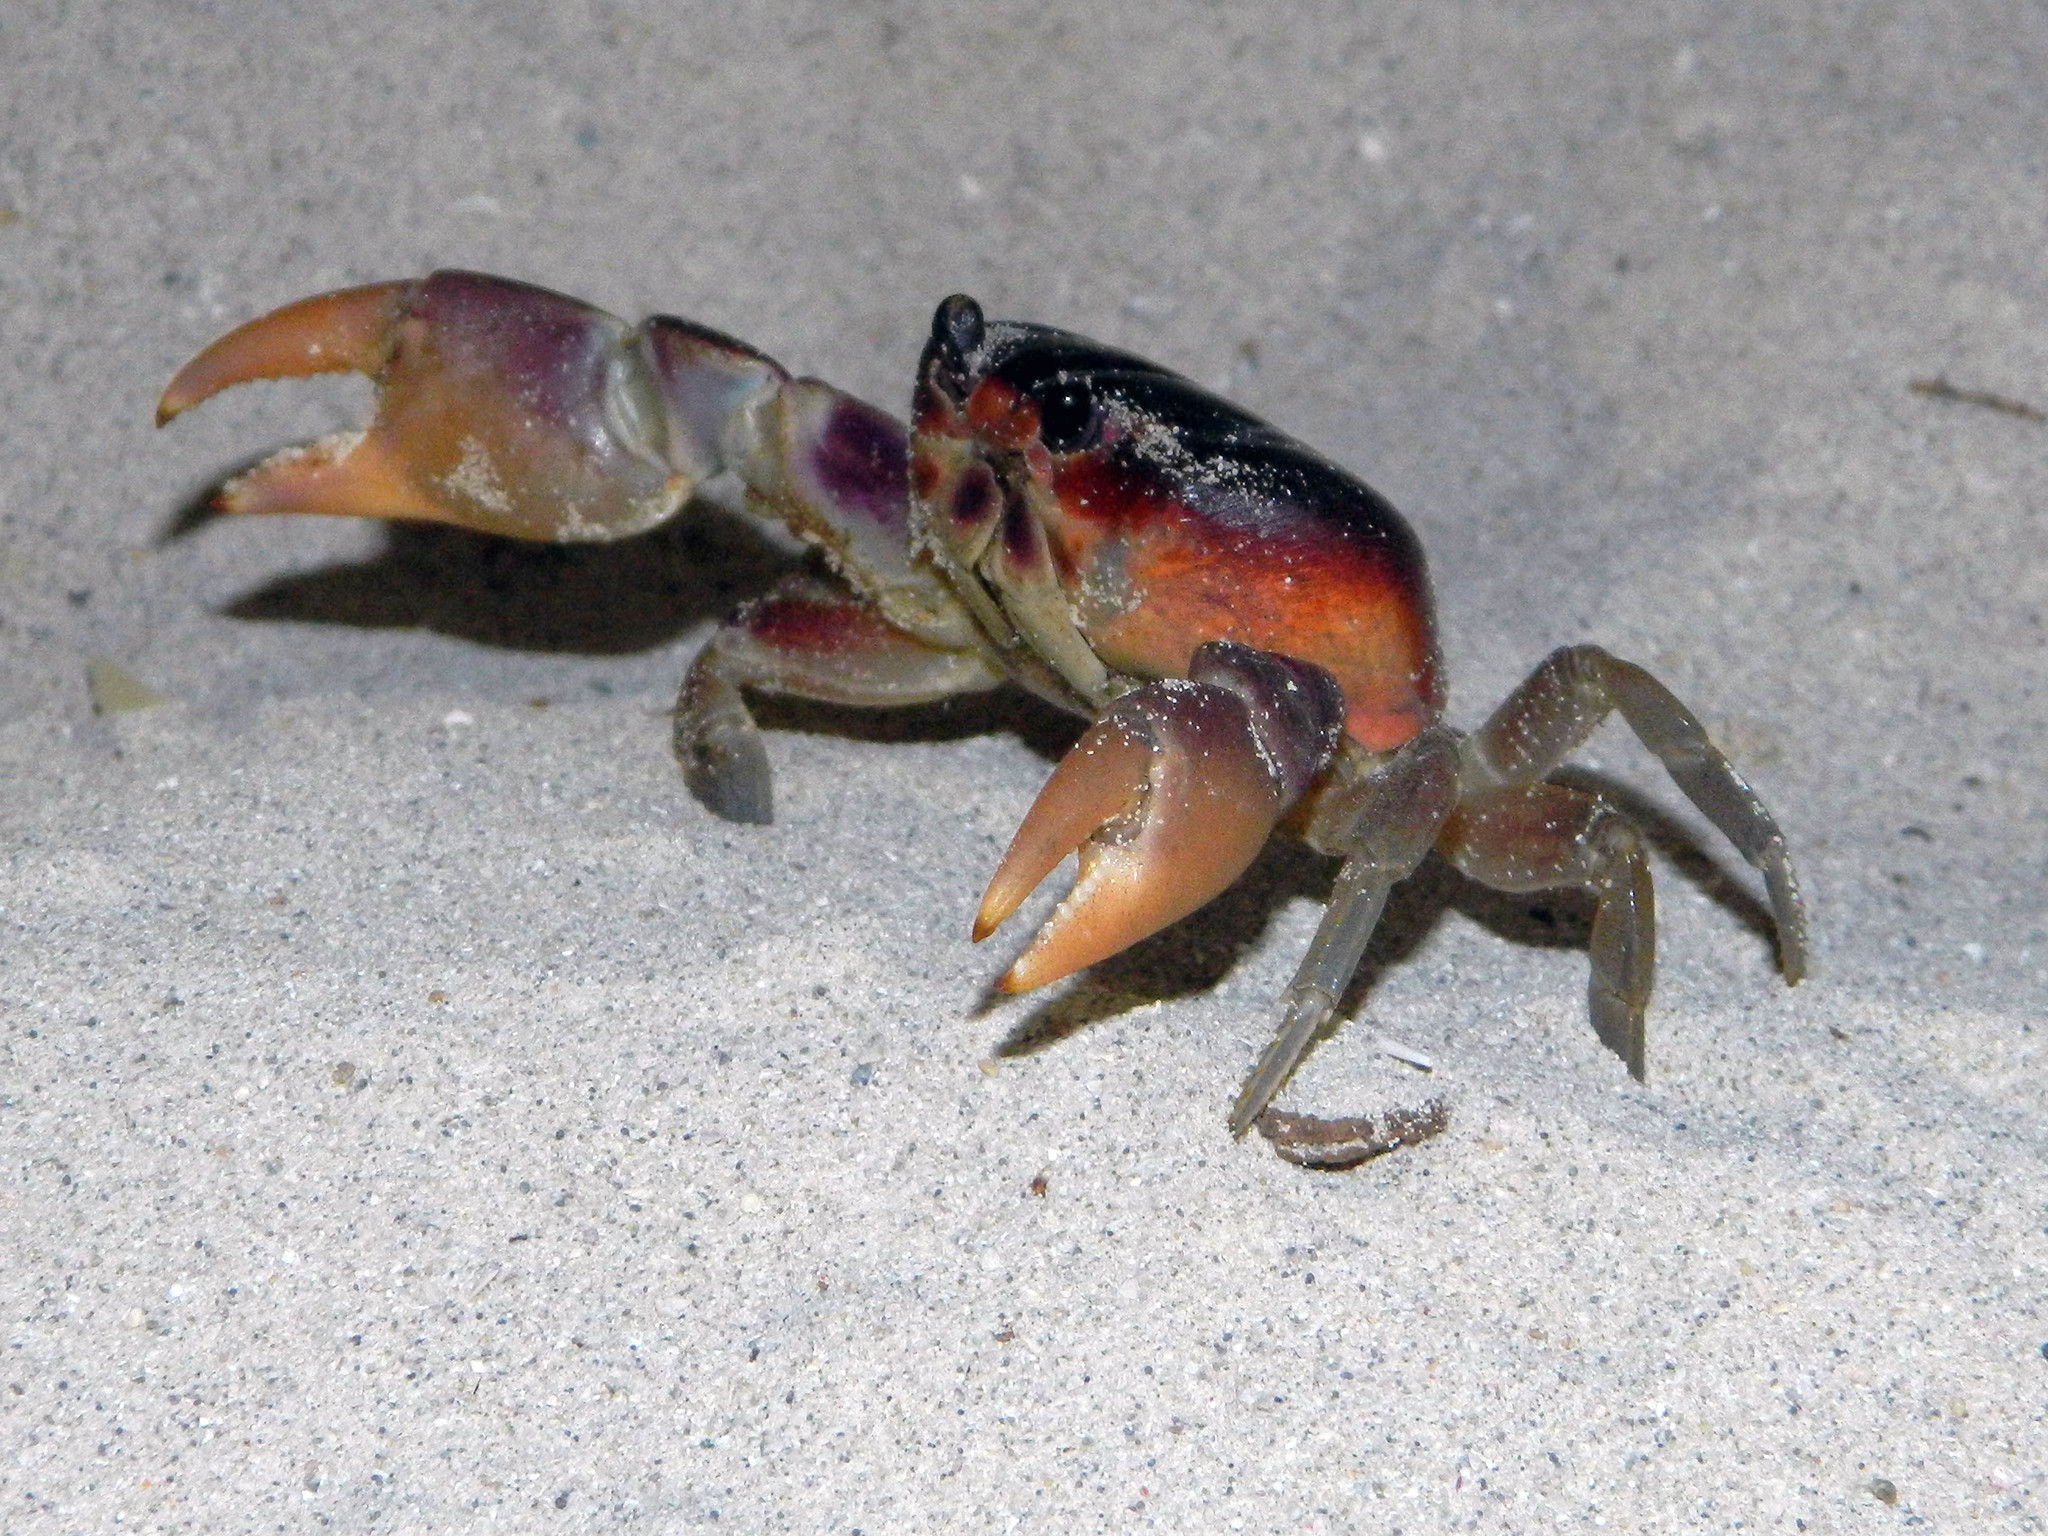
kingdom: Animalia
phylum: Arthropoda
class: Malacostraca
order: Decapoda
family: Gecarcinidae
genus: Gecarcinus
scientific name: Gecarcinus lateralis
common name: Bermuda land crab
